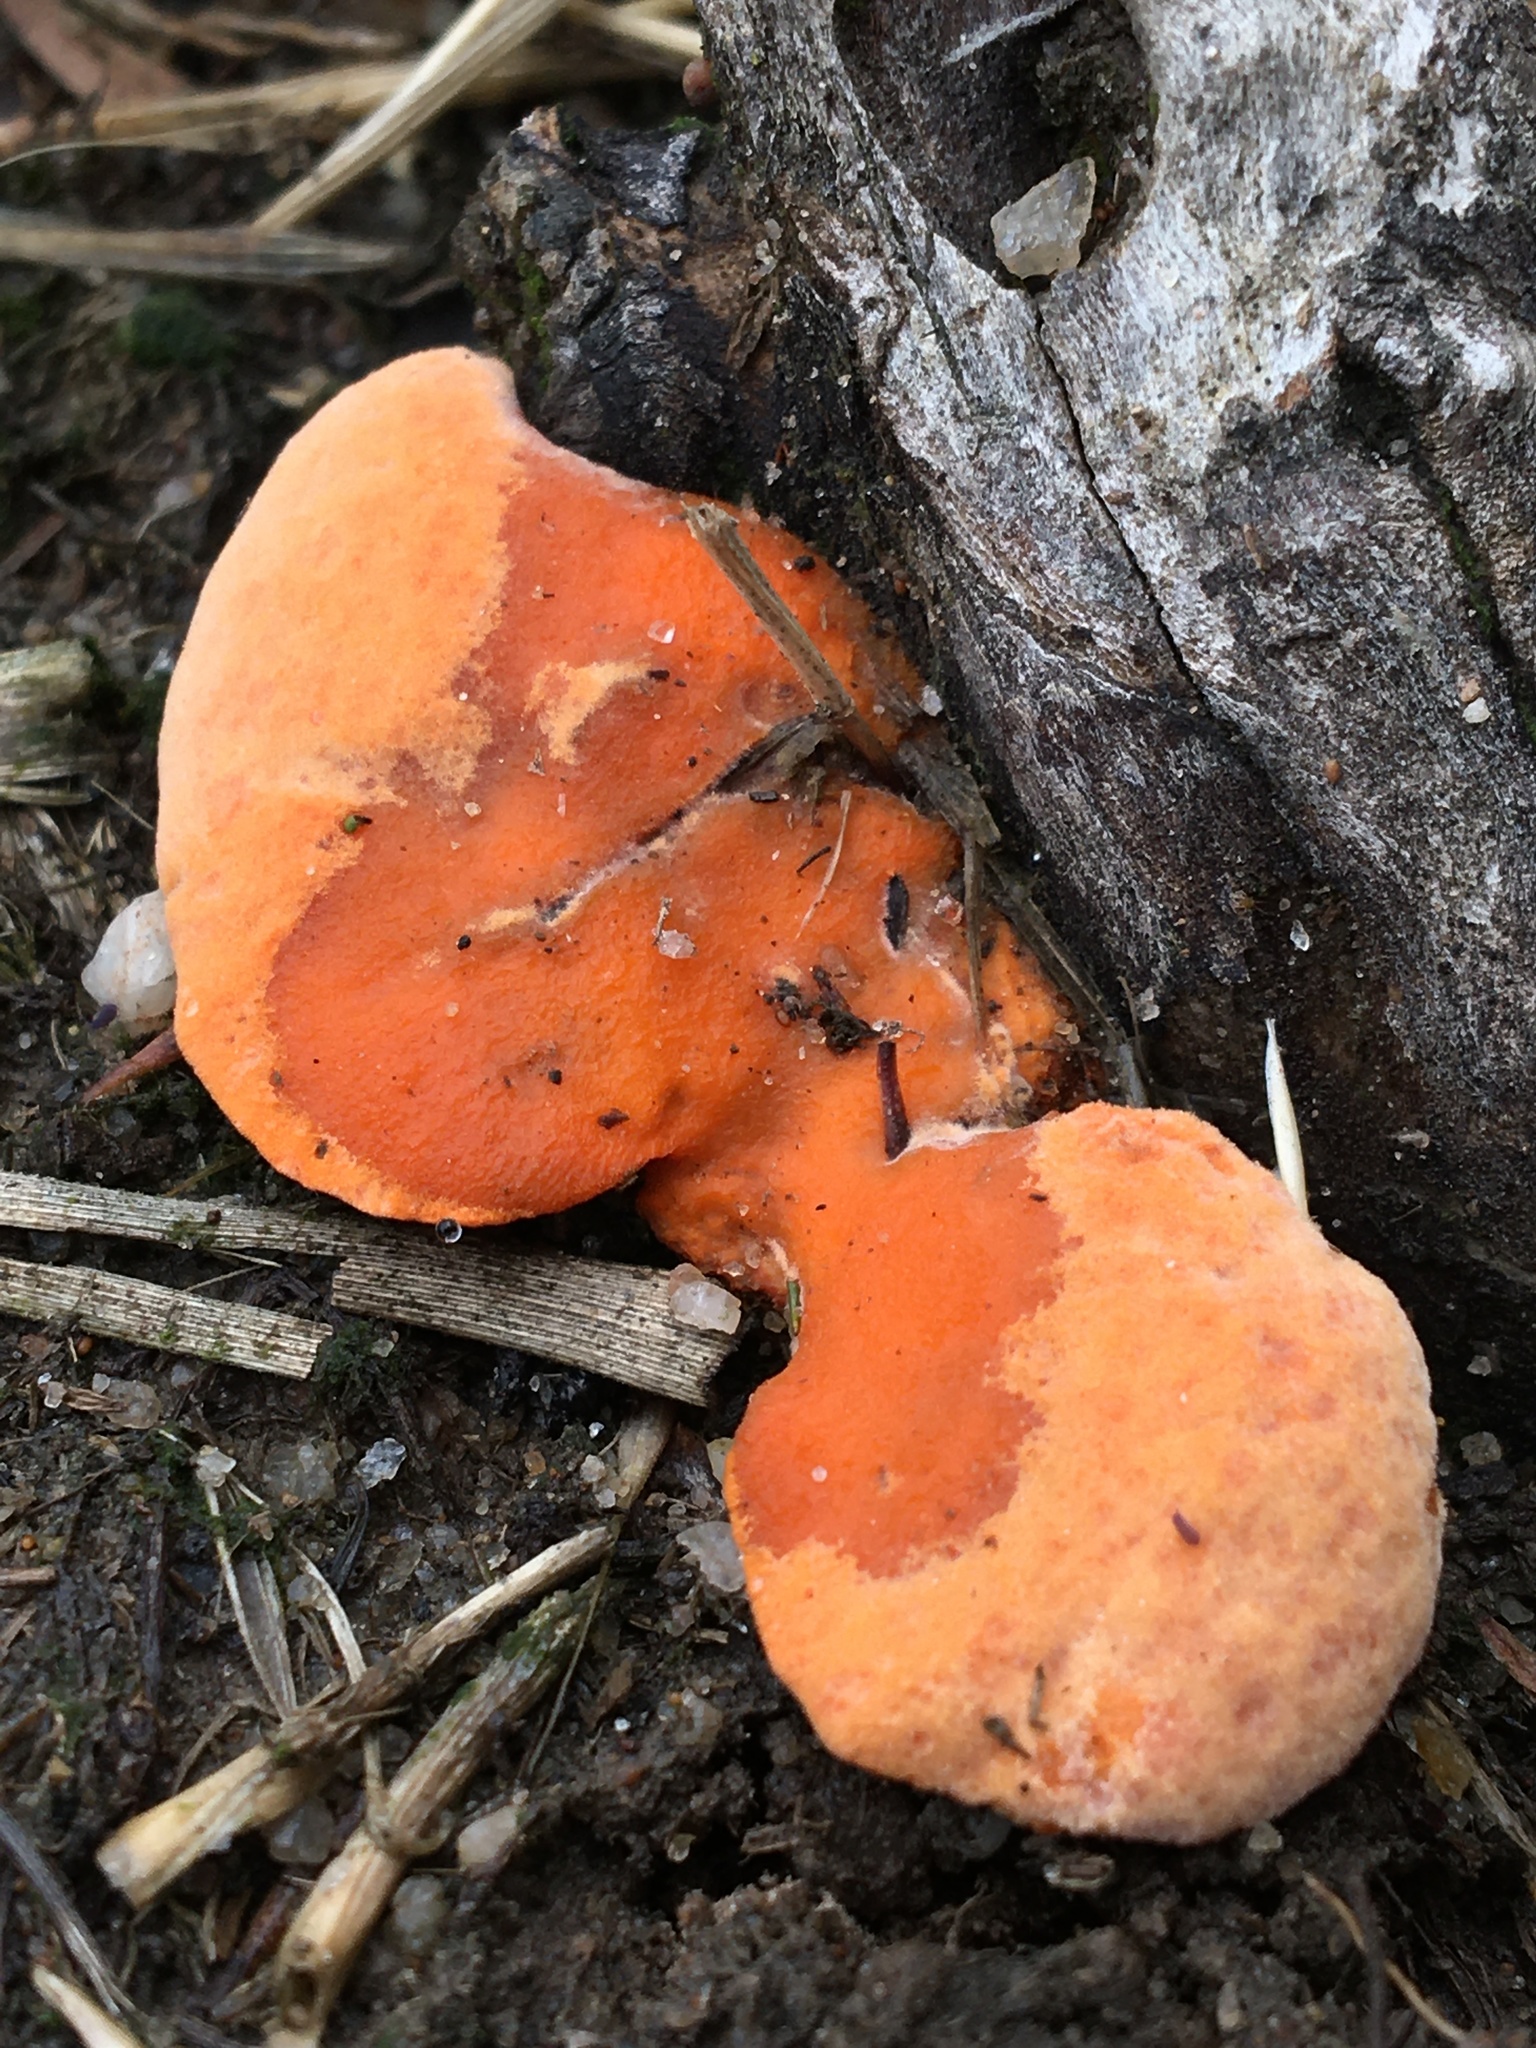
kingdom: Fungi
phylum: Basidiomycota
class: Agaricomycetes
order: Polyporales
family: Polyporaceae
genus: Trametes
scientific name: Trametes coccinea
